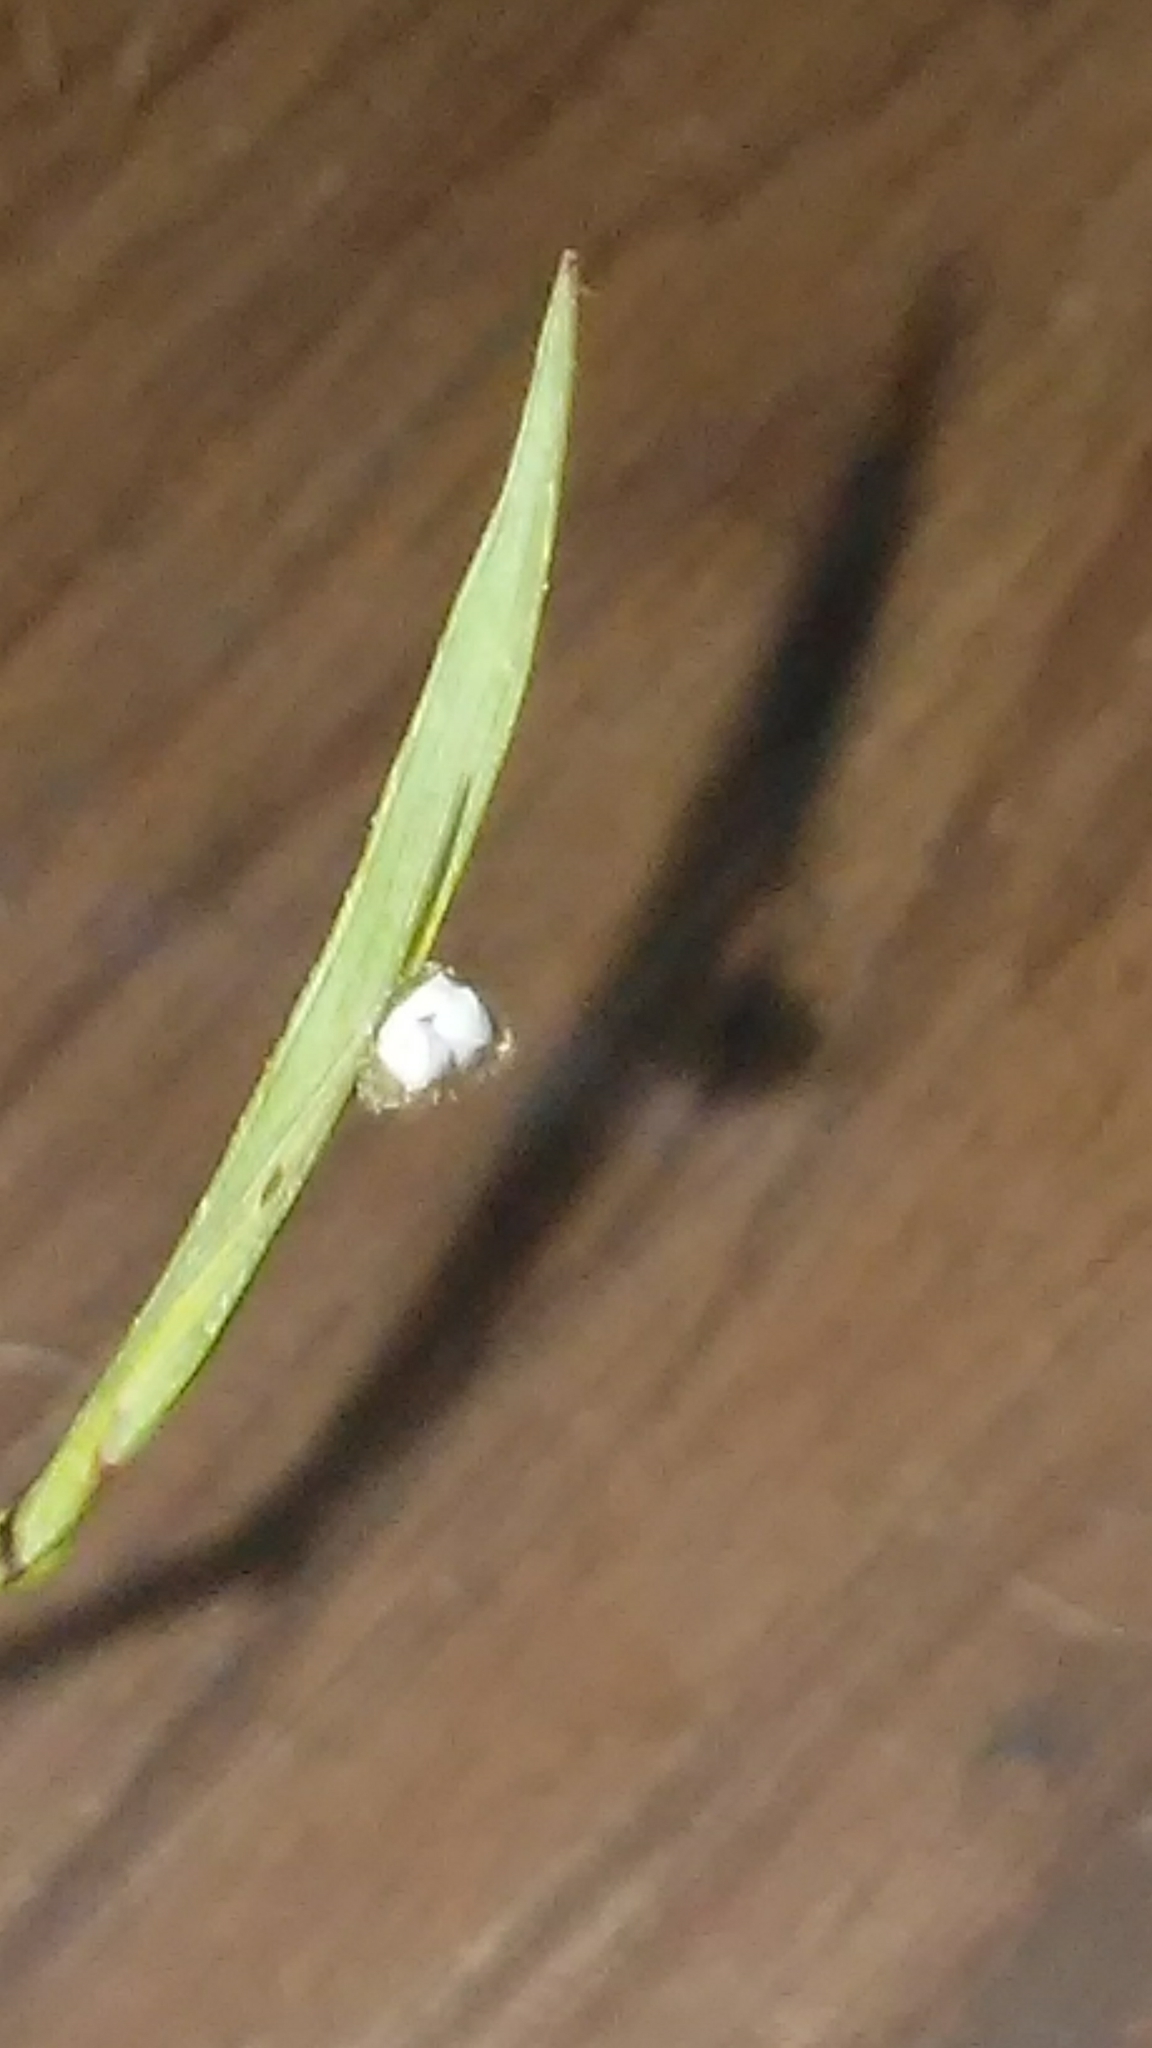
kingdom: Plantae
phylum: Tracheophyta
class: Liliopsida
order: Asparagales
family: Iridaceae
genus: Sisyrinchium
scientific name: Sisyrinchium micranthum
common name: Bermuda pigroot
